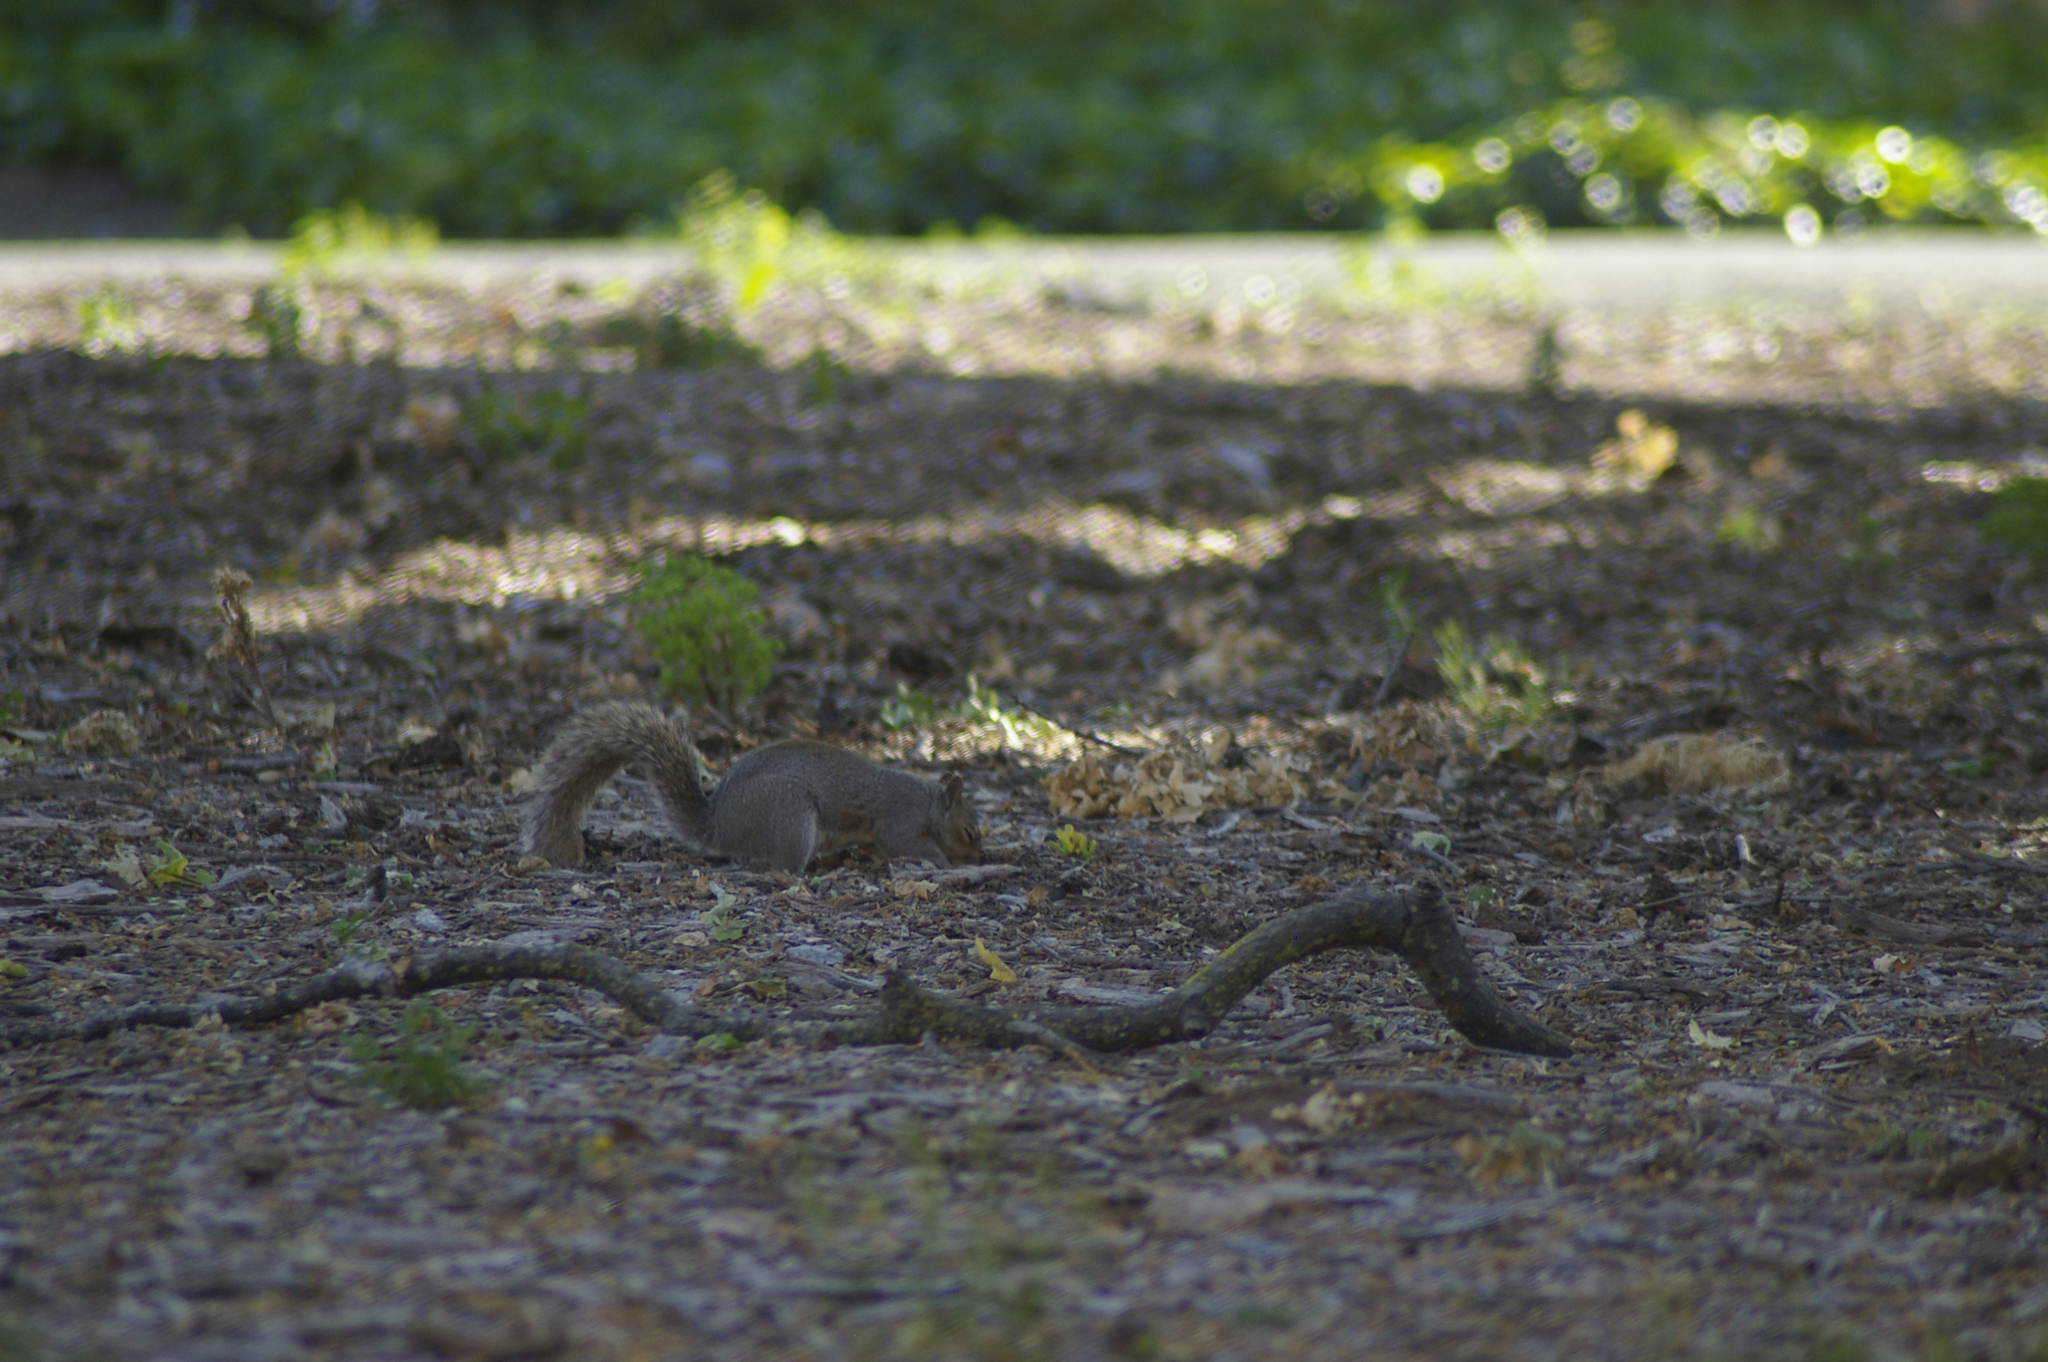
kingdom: Animalia
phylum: Chordata
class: Mammalia
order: Rodentia
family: Sciuridae
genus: Sciurus
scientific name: Sciurus carolinensis
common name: Eastern gray squirrel
